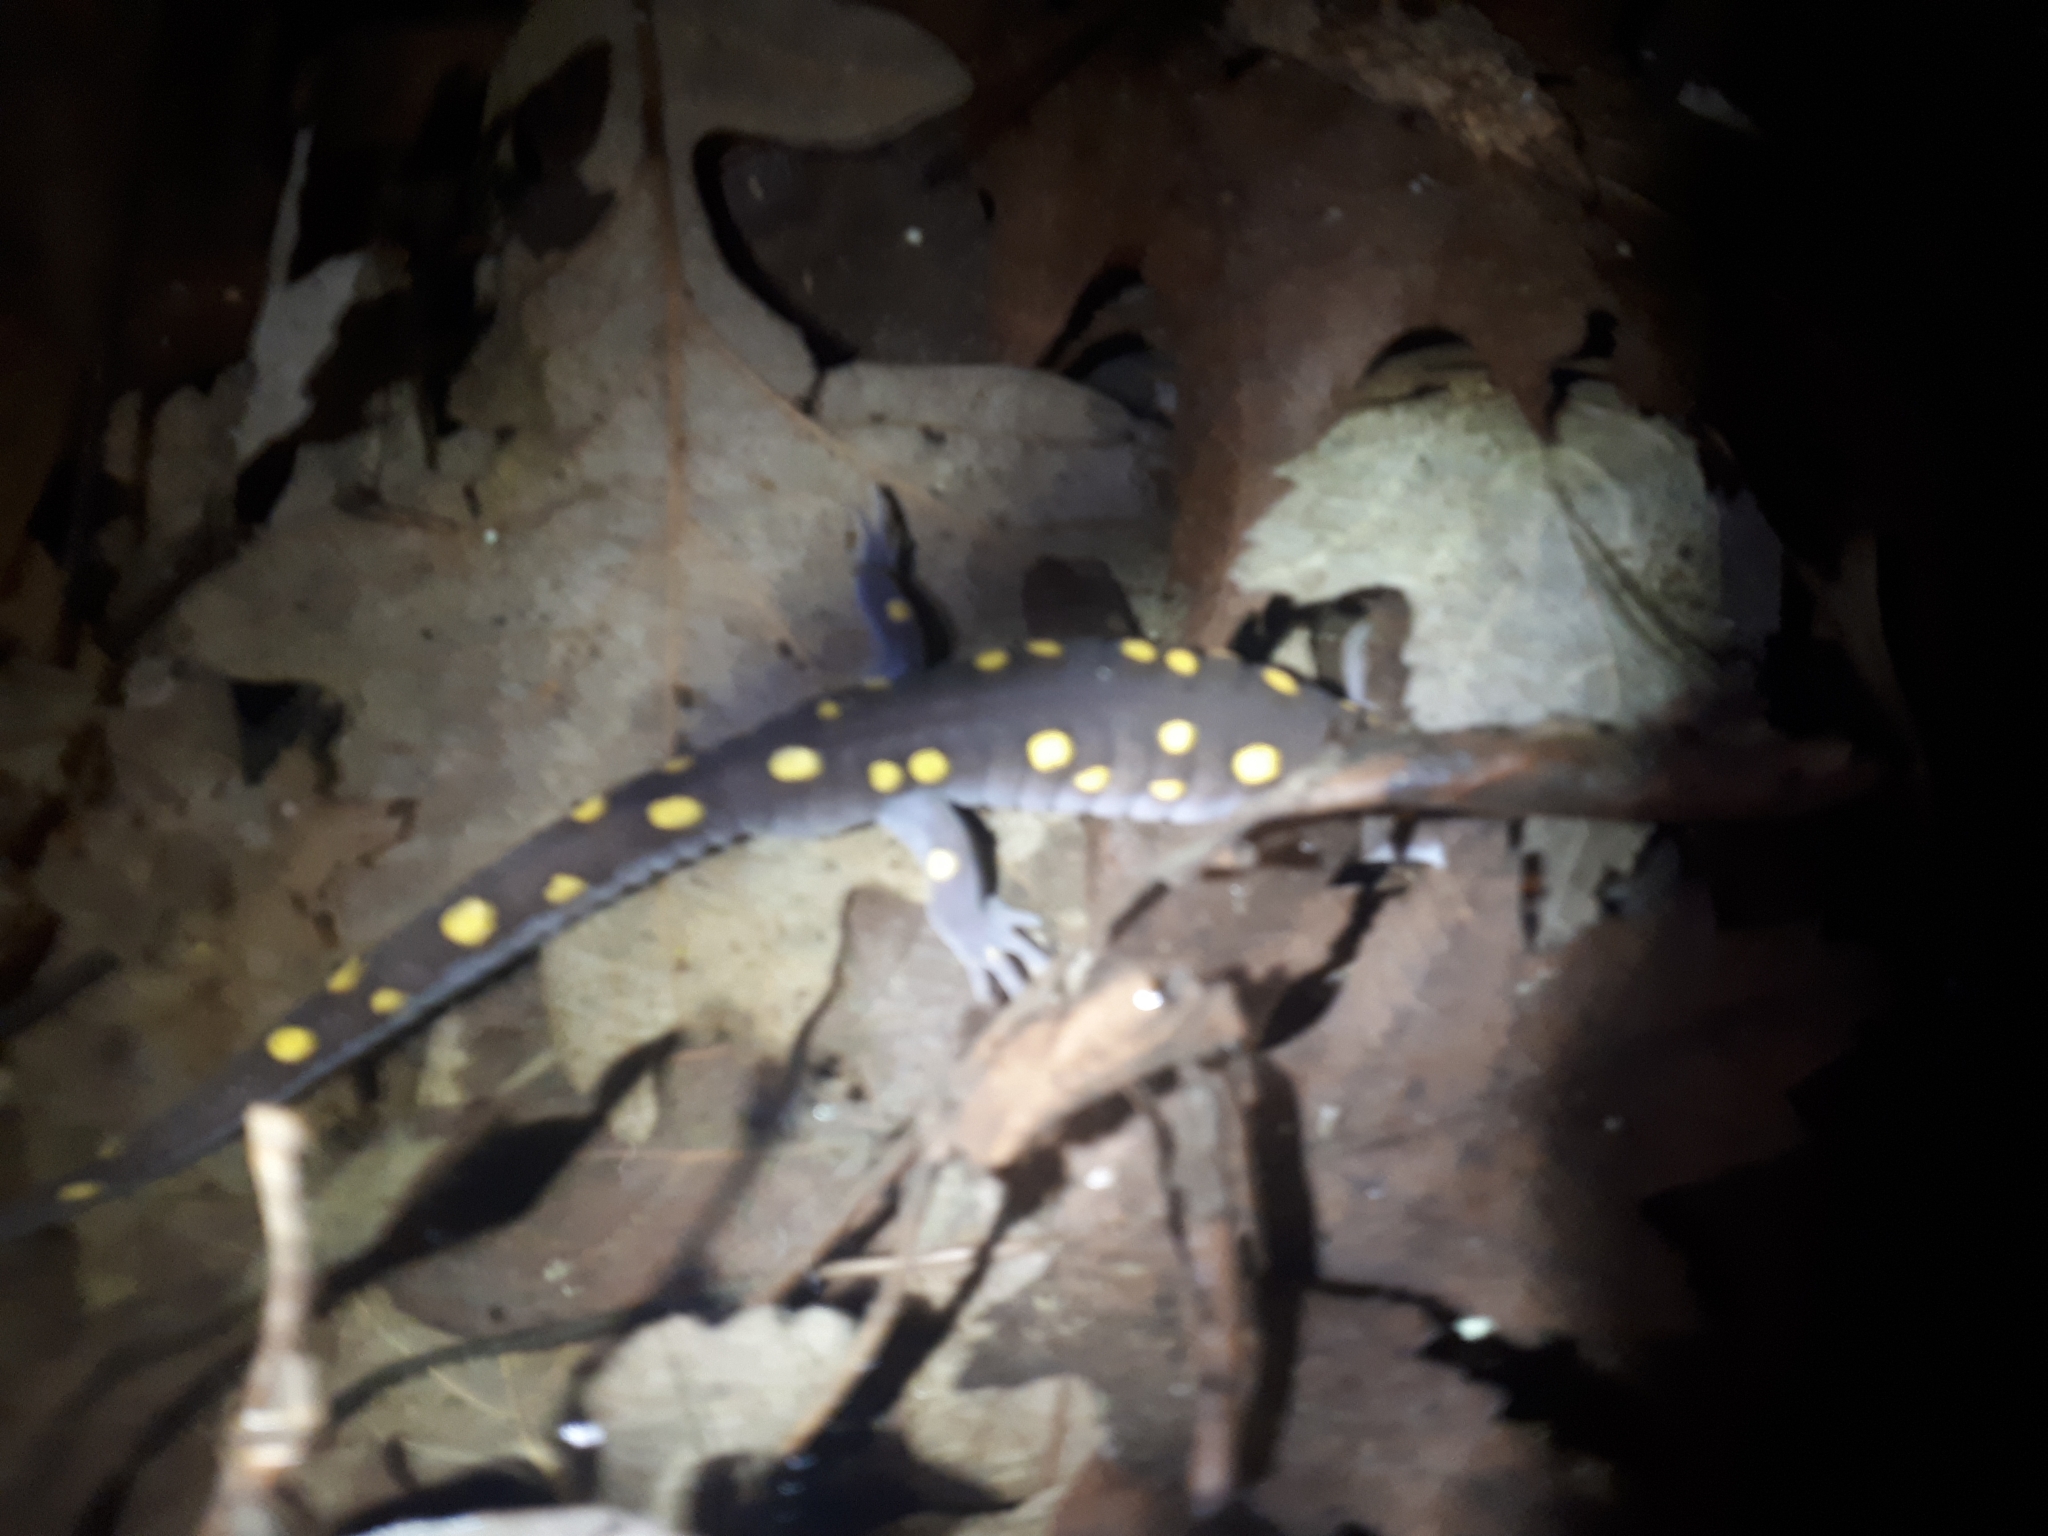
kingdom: Animalia
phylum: Chordata
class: Amphibia
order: Caudata
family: Ambystomatidae
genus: Ambystoma
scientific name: Ambystoma maculatum
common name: Spotted salamander
